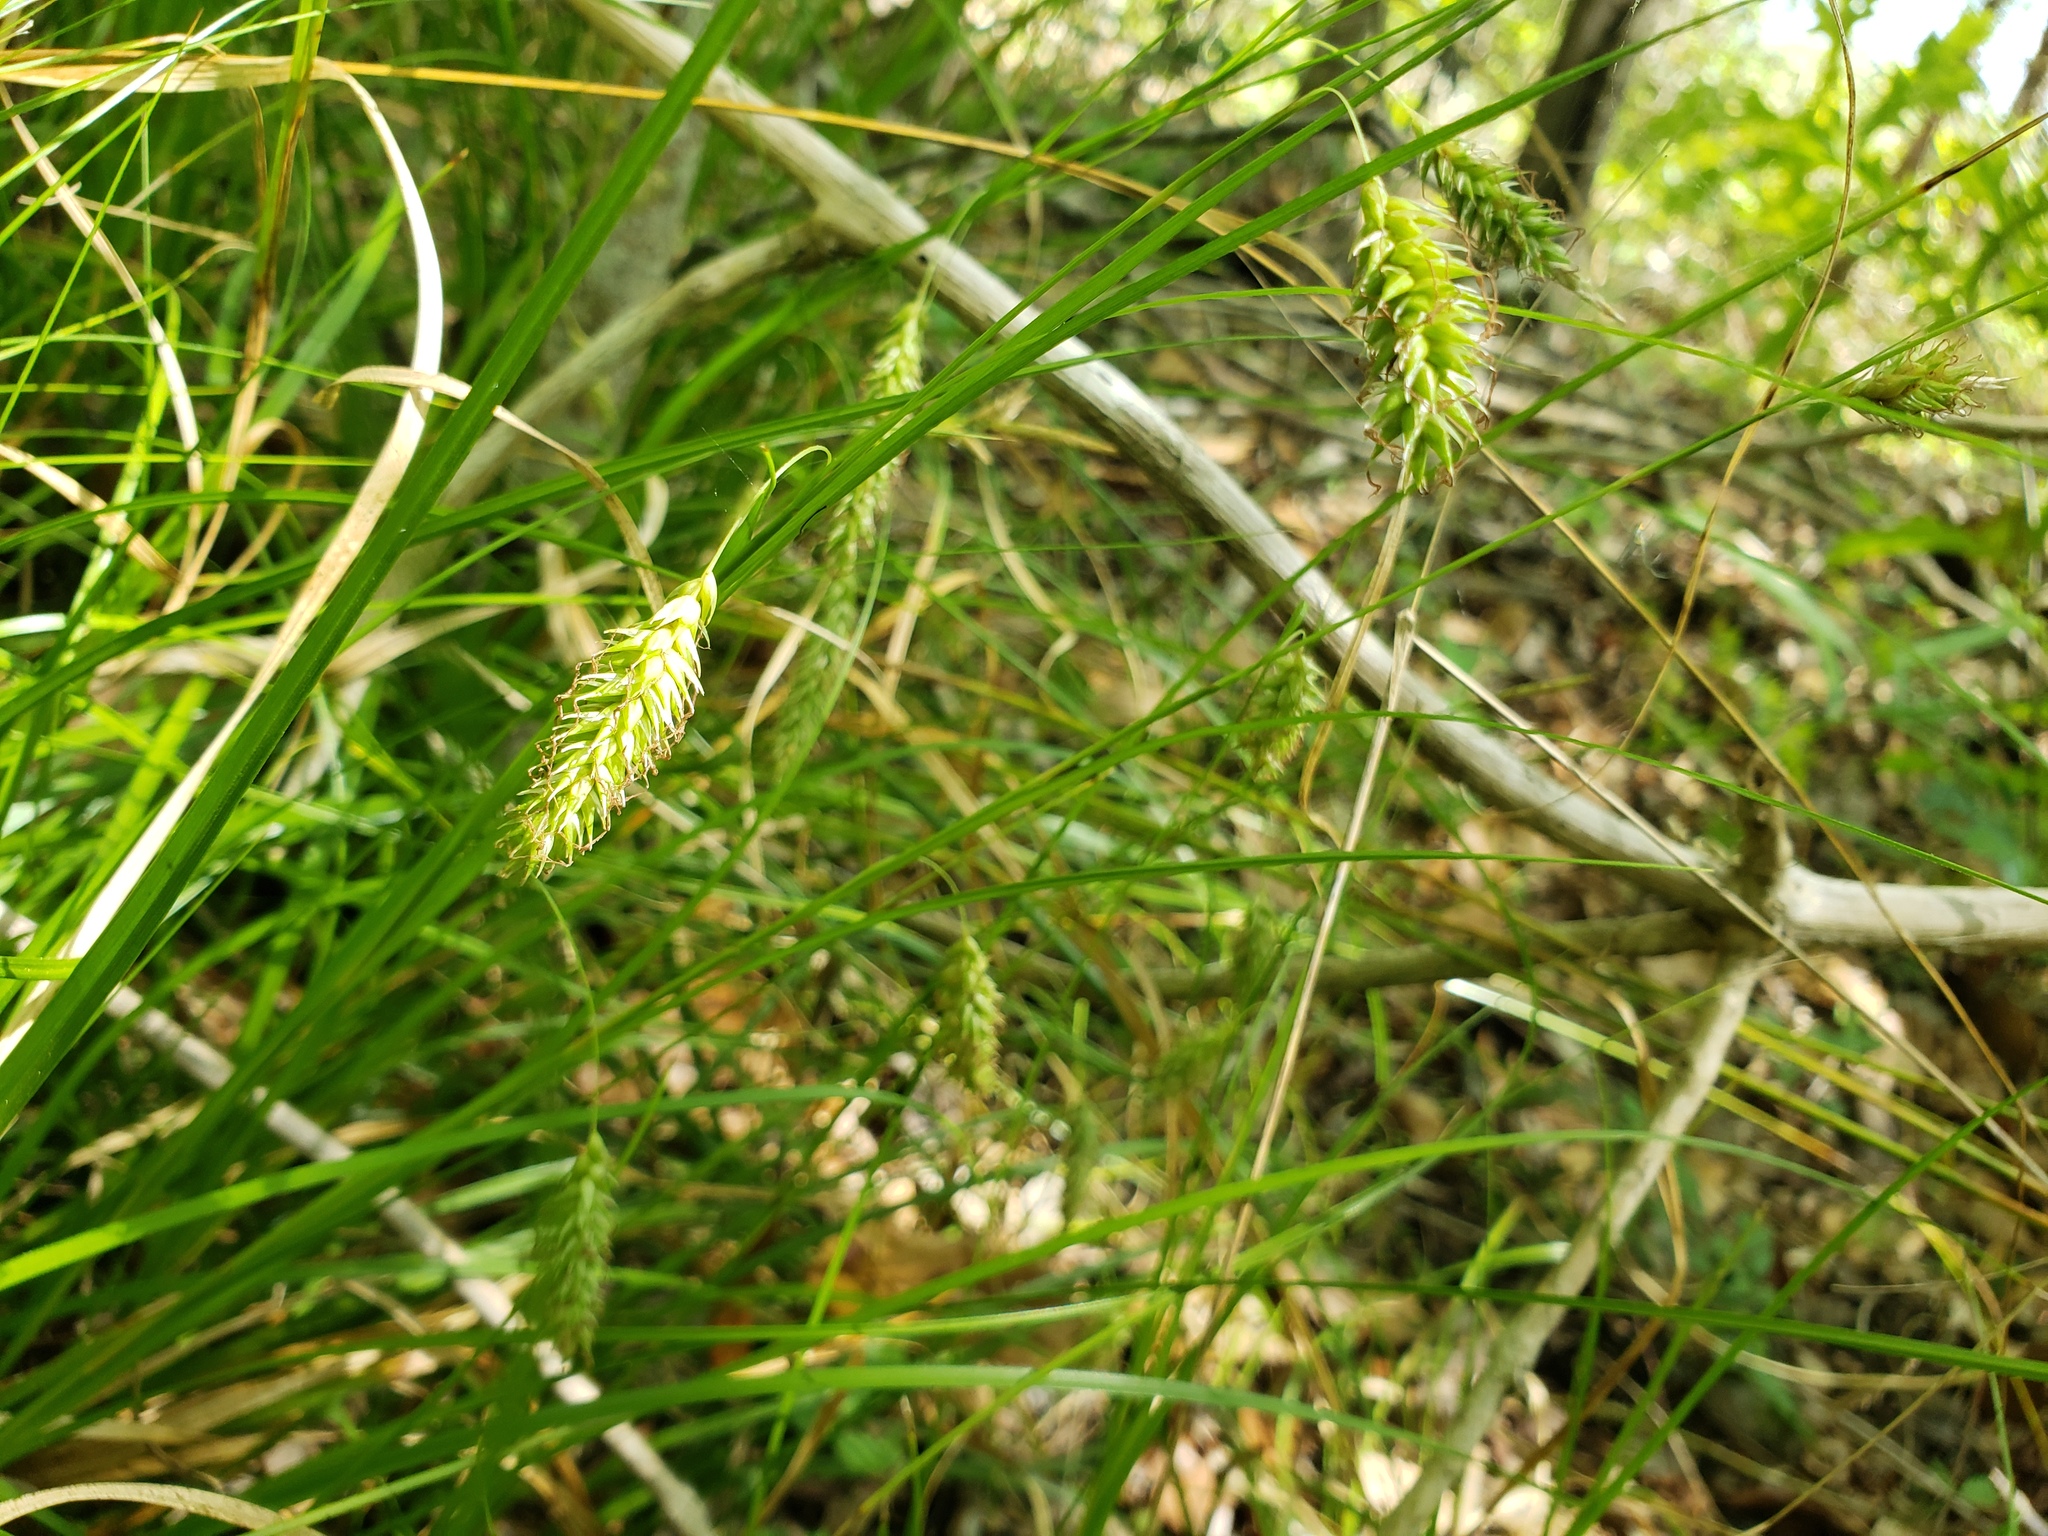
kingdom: Plantae
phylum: Tracheophyta
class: Liliopsida
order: Poales
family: Cyperaceae
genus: Carex
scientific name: Carex cherokeensis
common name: Cherokee sedge
